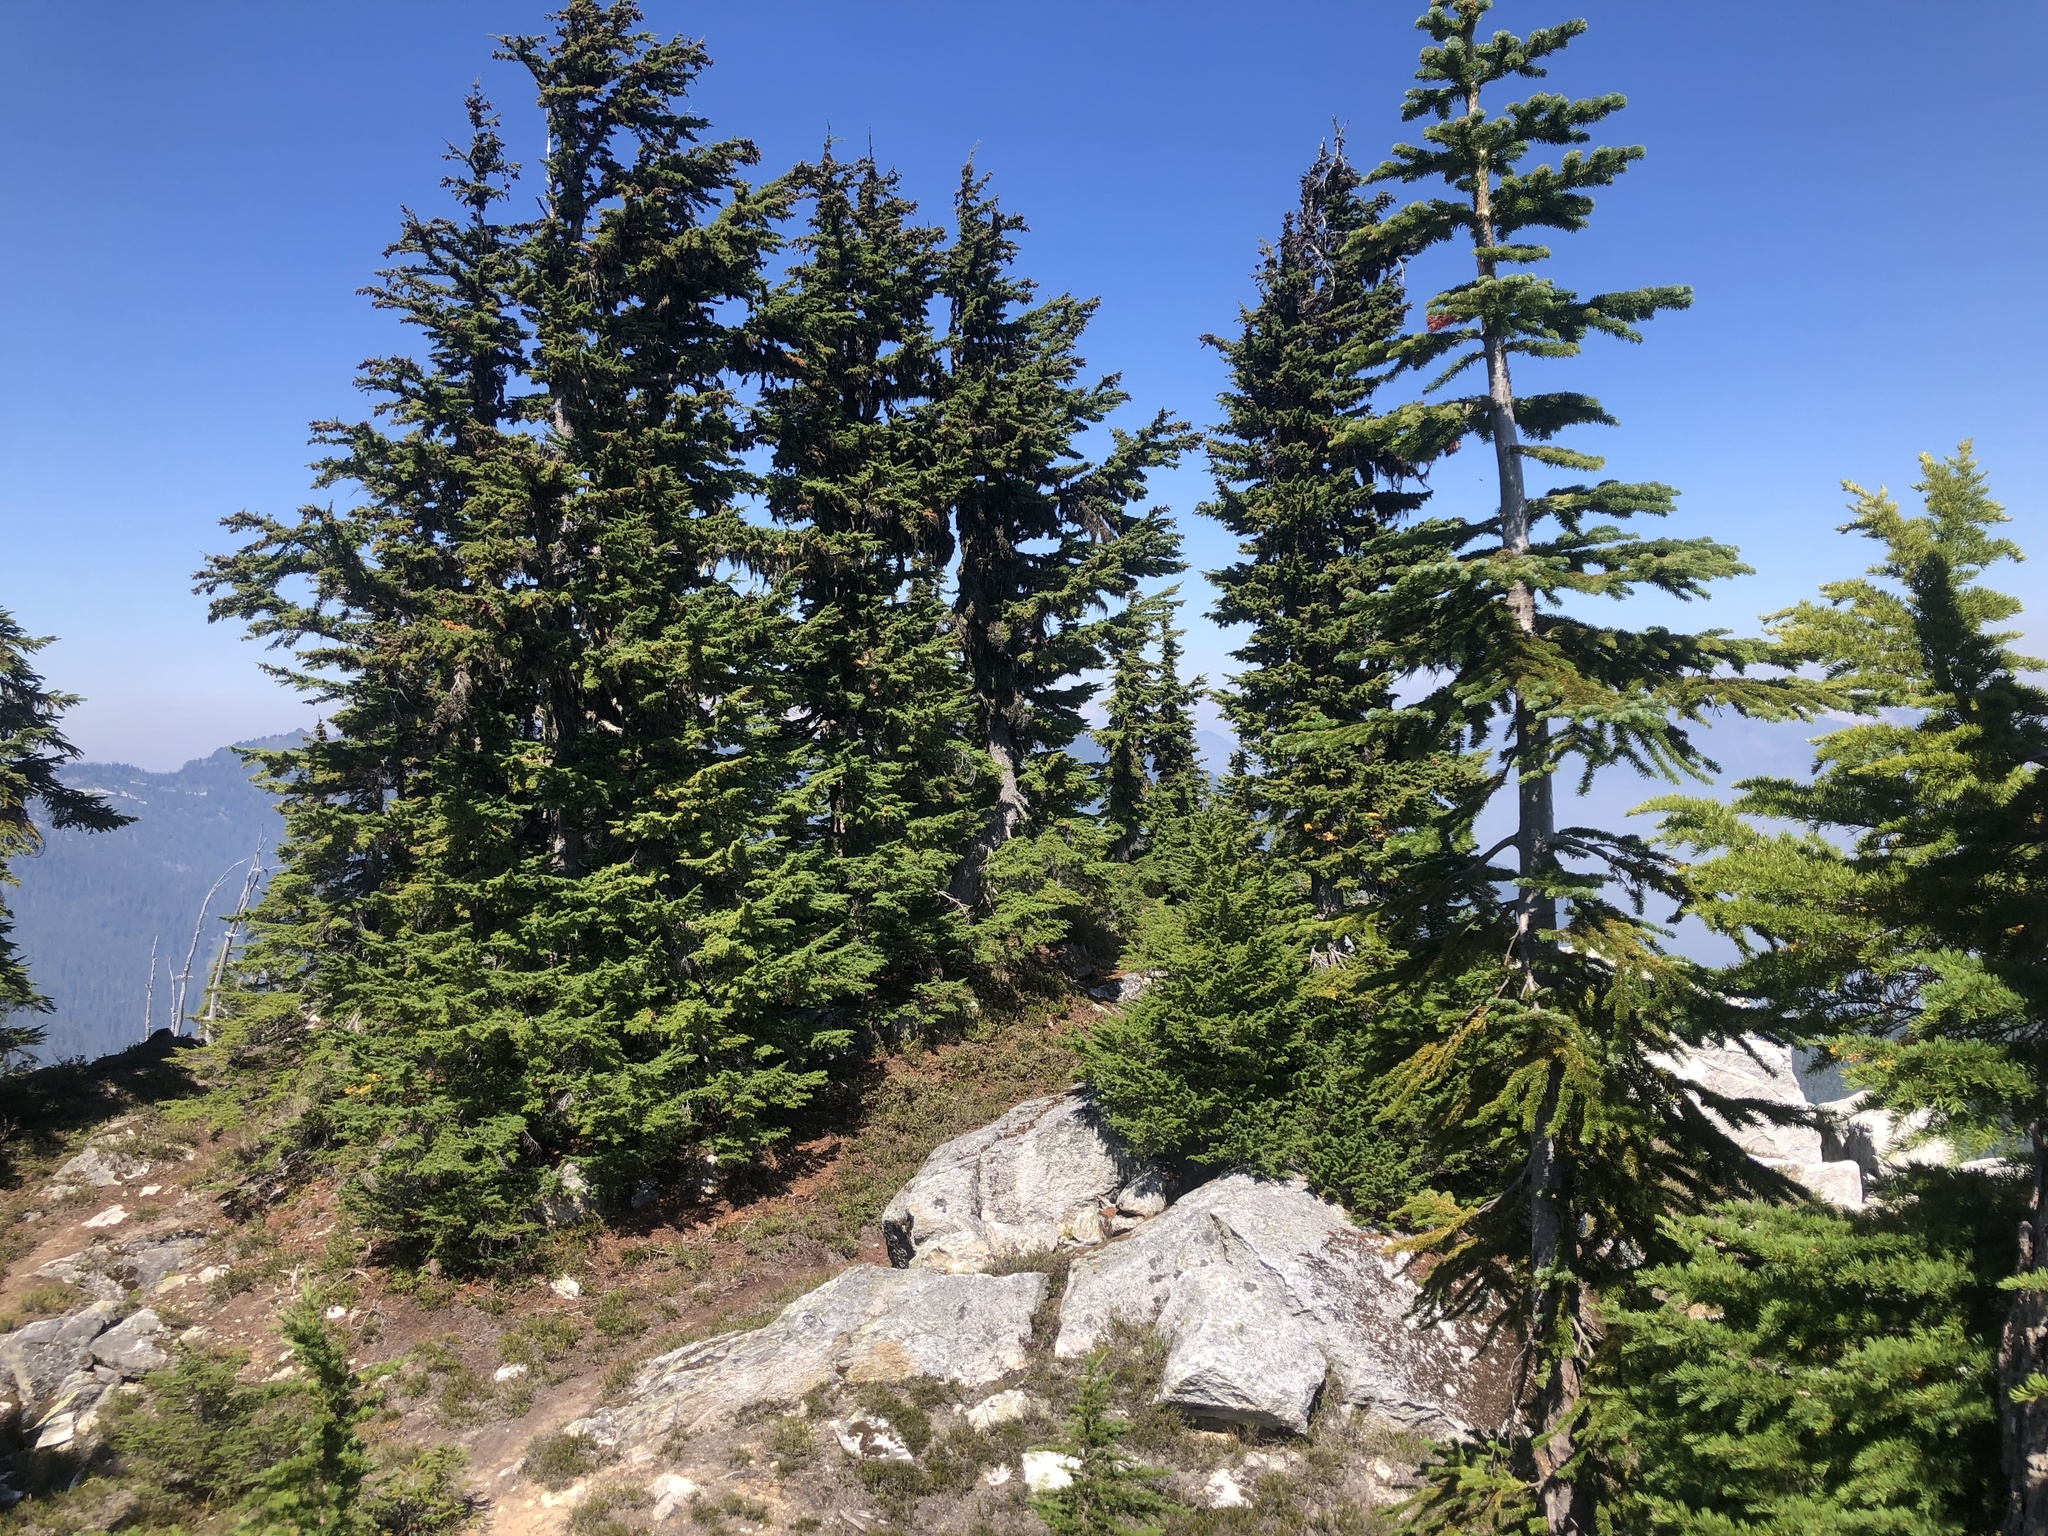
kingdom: Plantae
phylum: Tracheophyta
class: Pinopsida
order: Pinales
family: Pinaceae
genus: Tsuga
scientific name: Tsuga mertensiana
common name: Mountain hemlock
